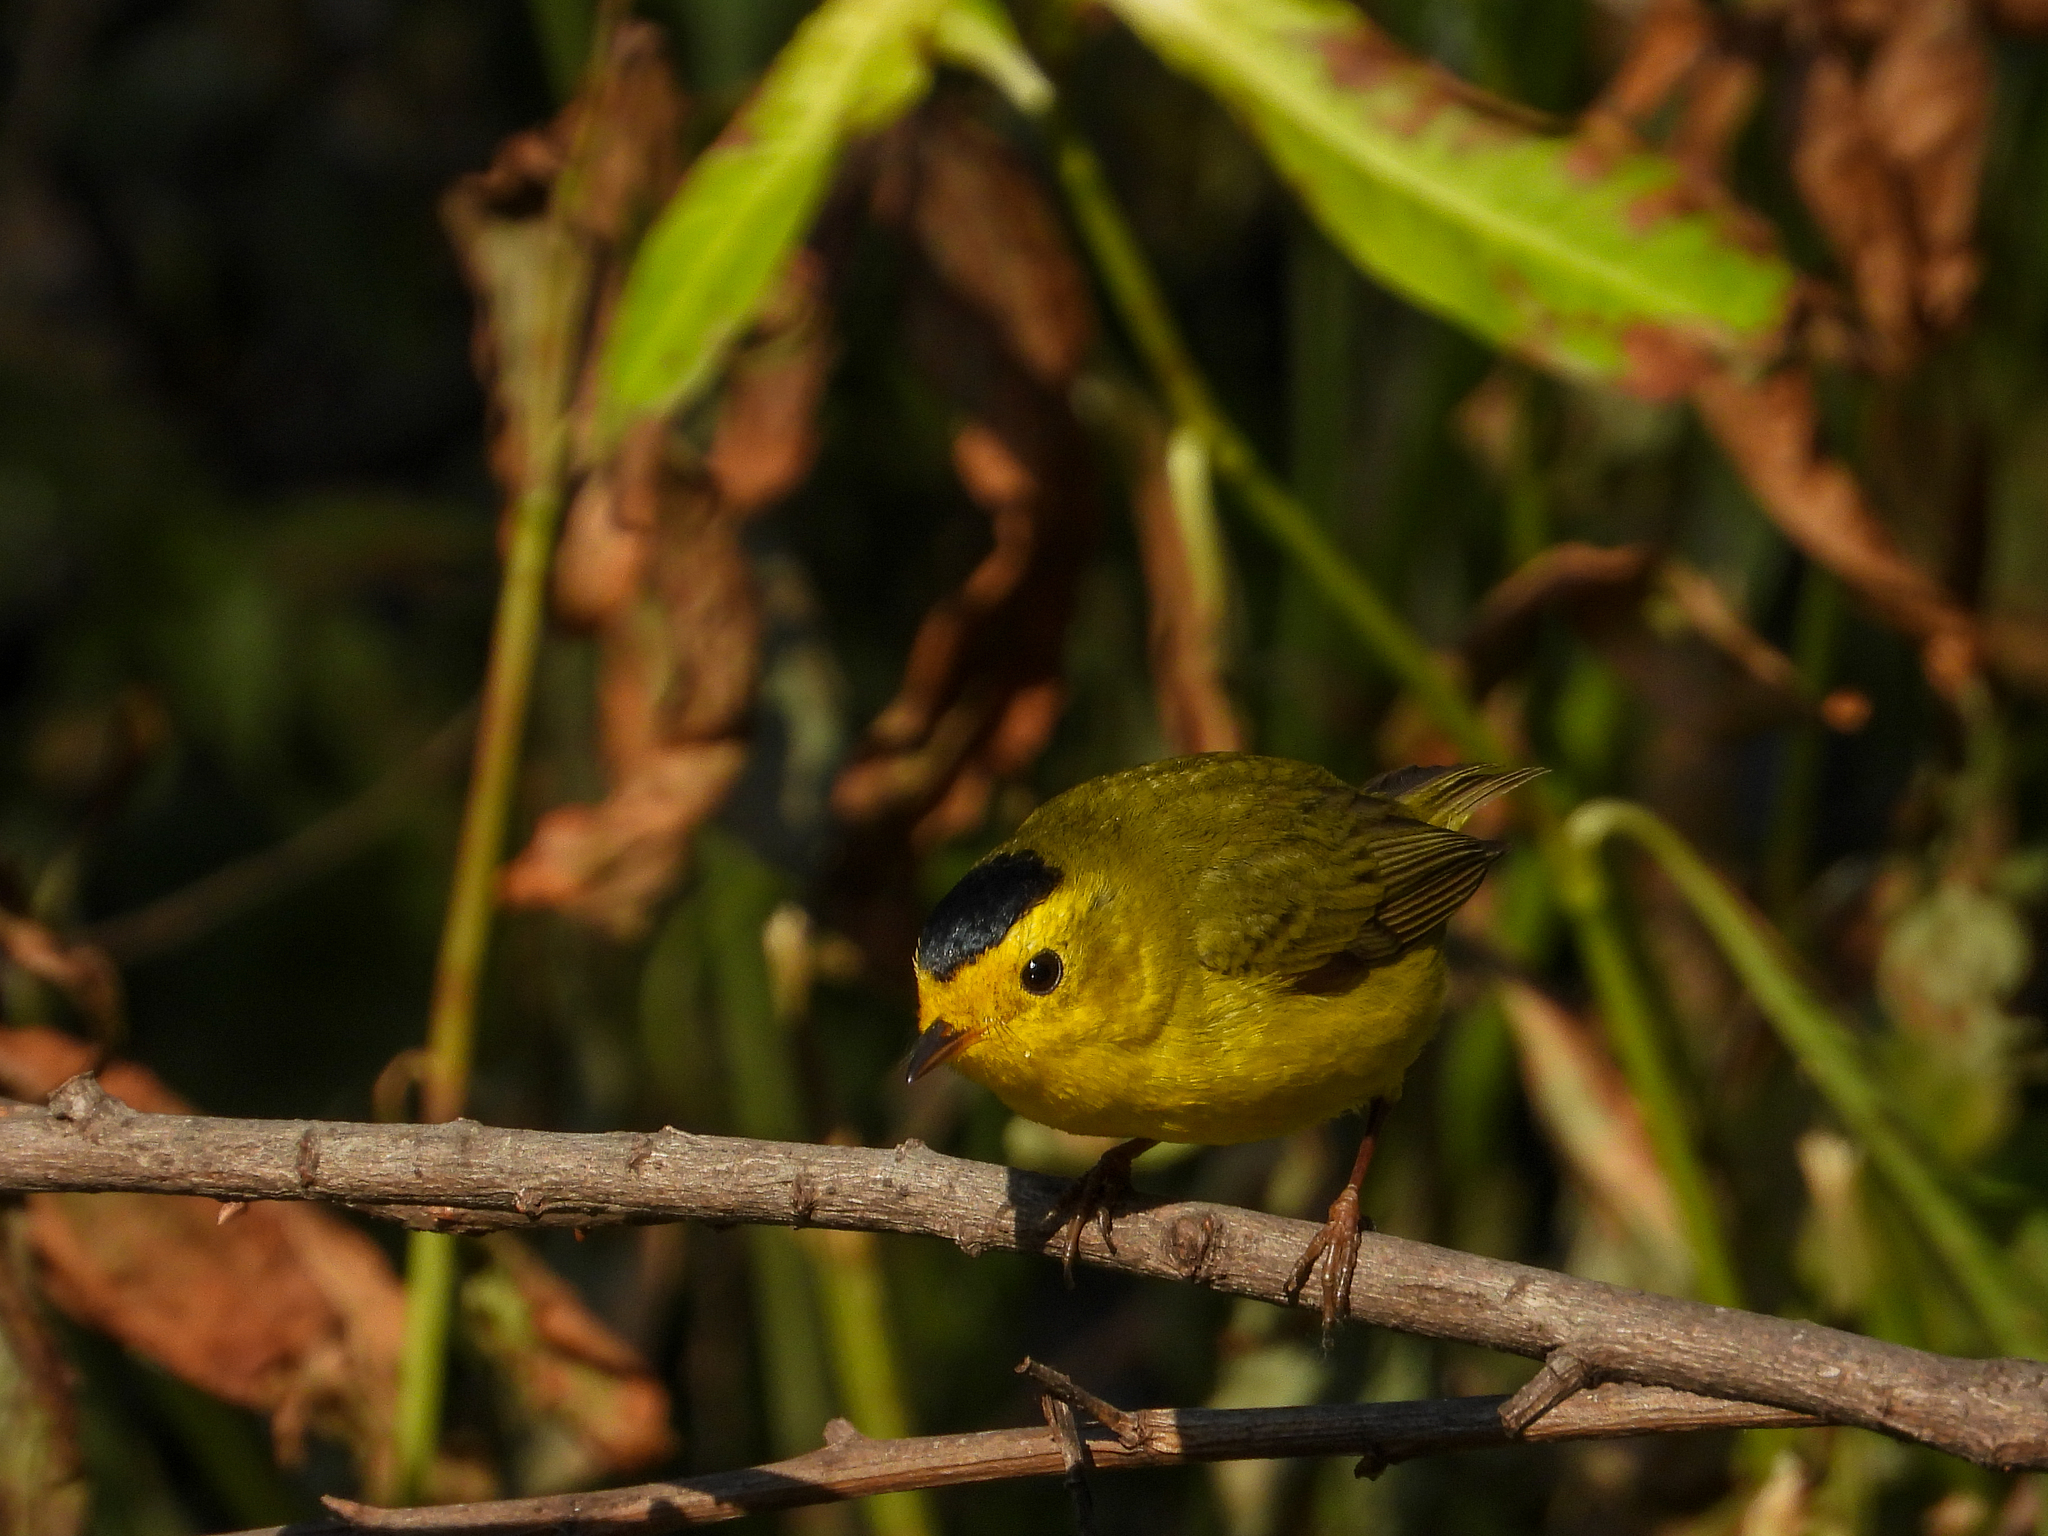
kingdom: Animalia
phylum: Chordata
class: Aves
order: Passeriformes
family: Parulidae
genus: Cardellina
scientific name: Cardellina pusilla
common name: Wilson's warbler
